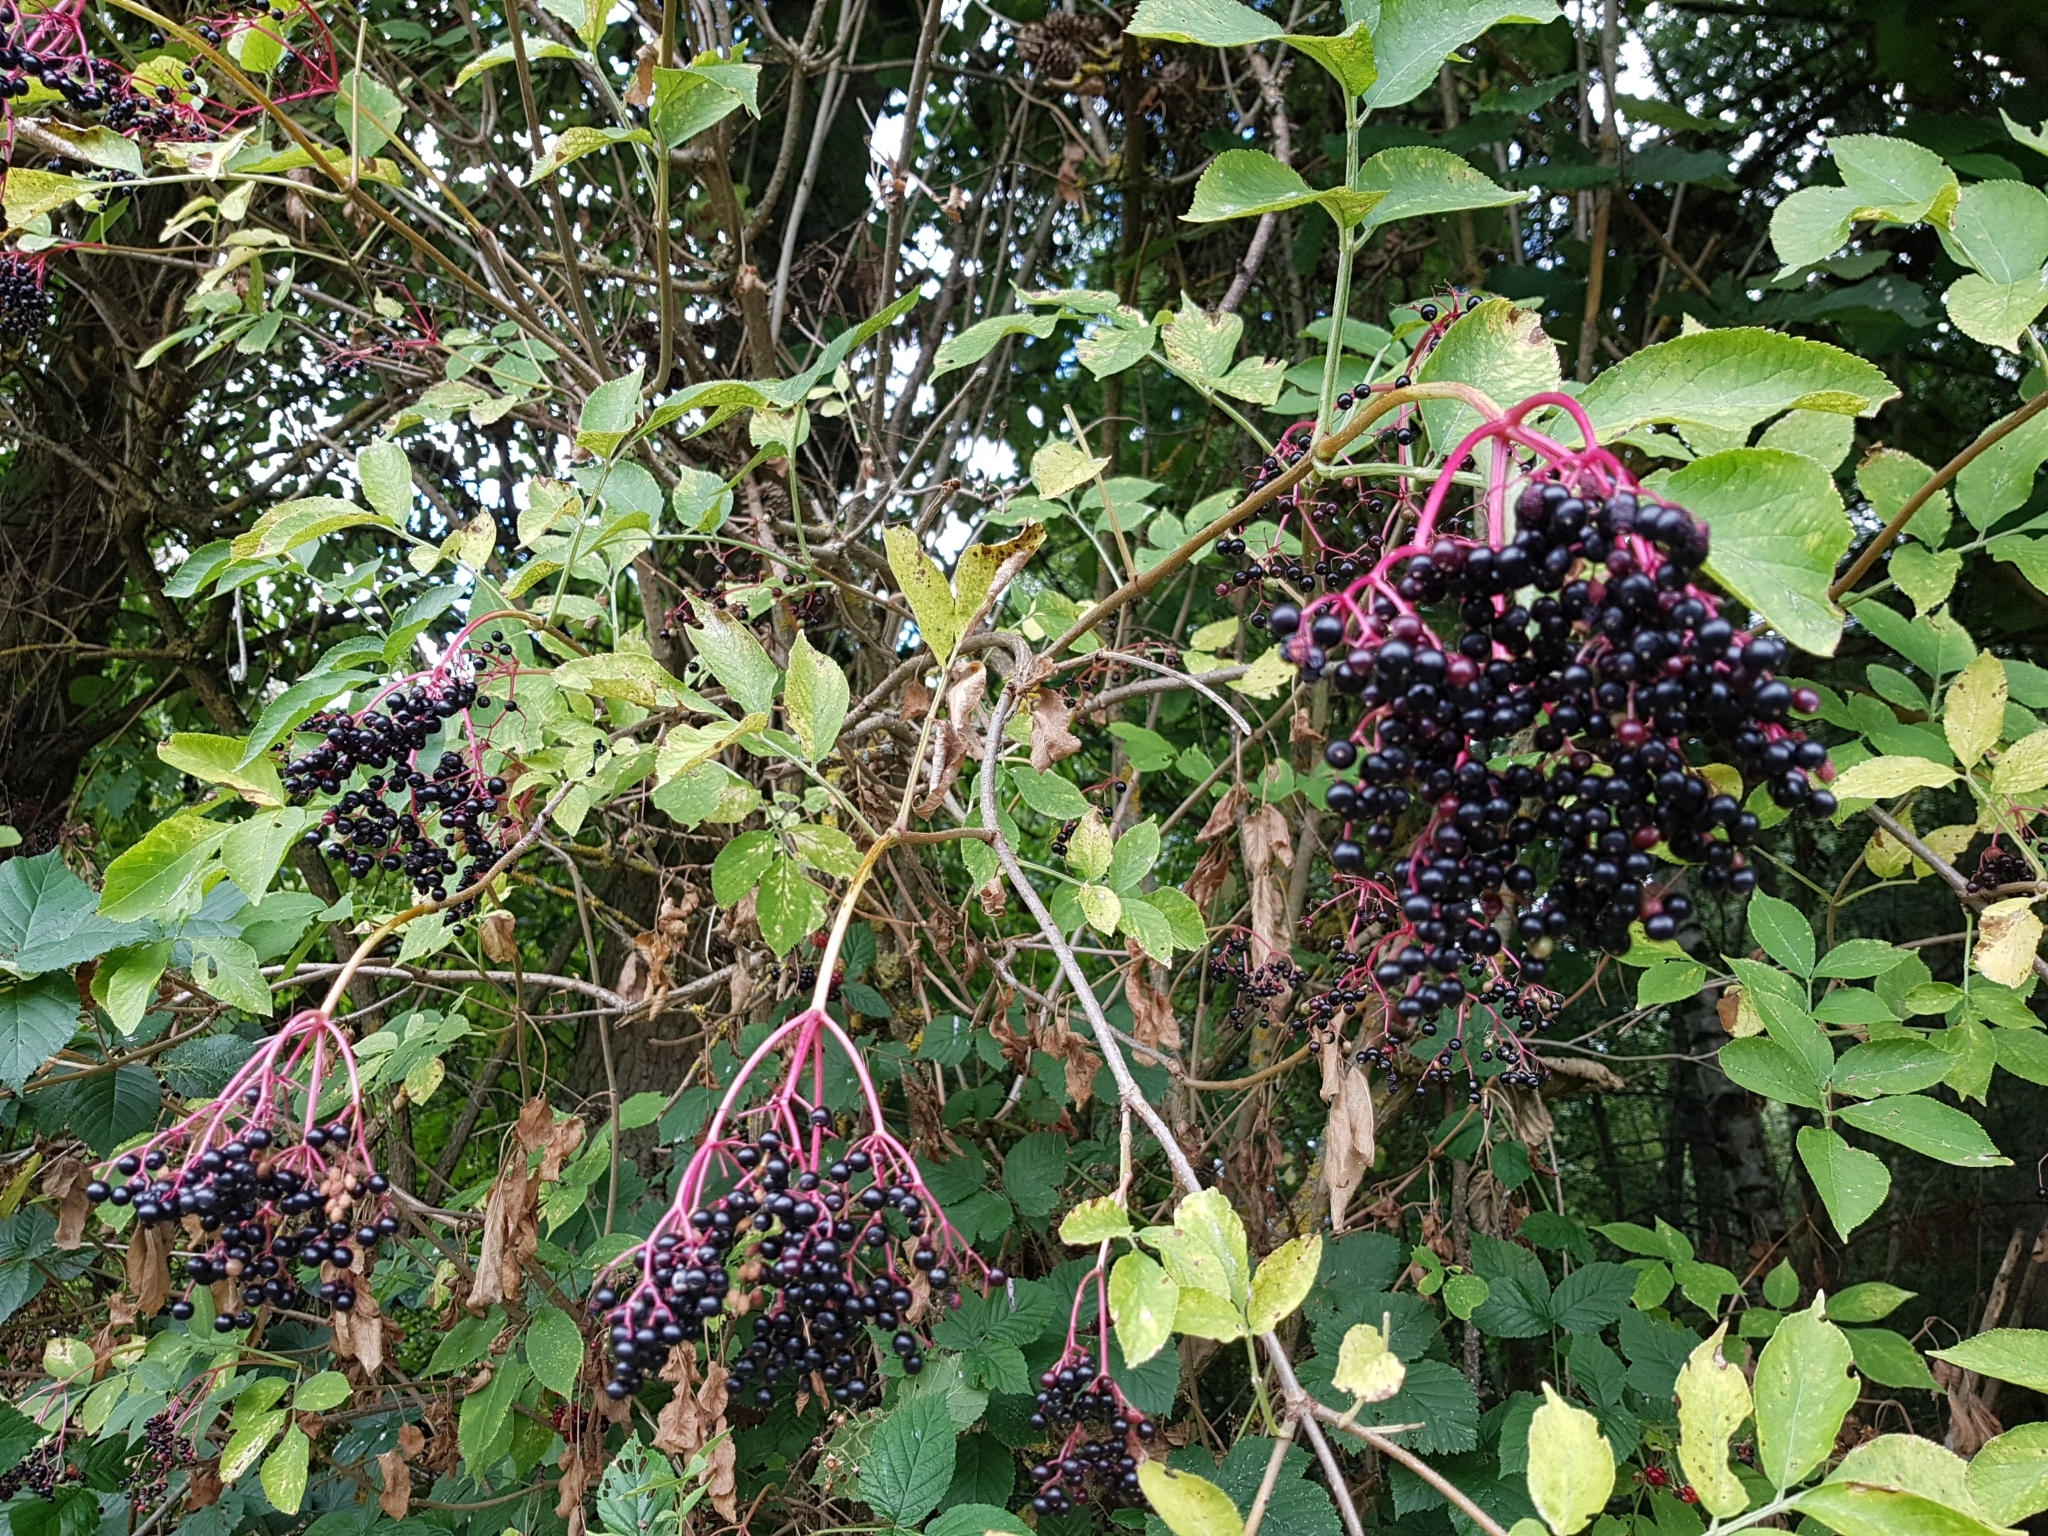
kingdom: Plantae
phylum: Tracheophyta
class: Magnoliopsida
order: Dipsacales
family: Viburnaceae
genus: Sambucus
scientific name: Sambucus nigra
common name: Elder
